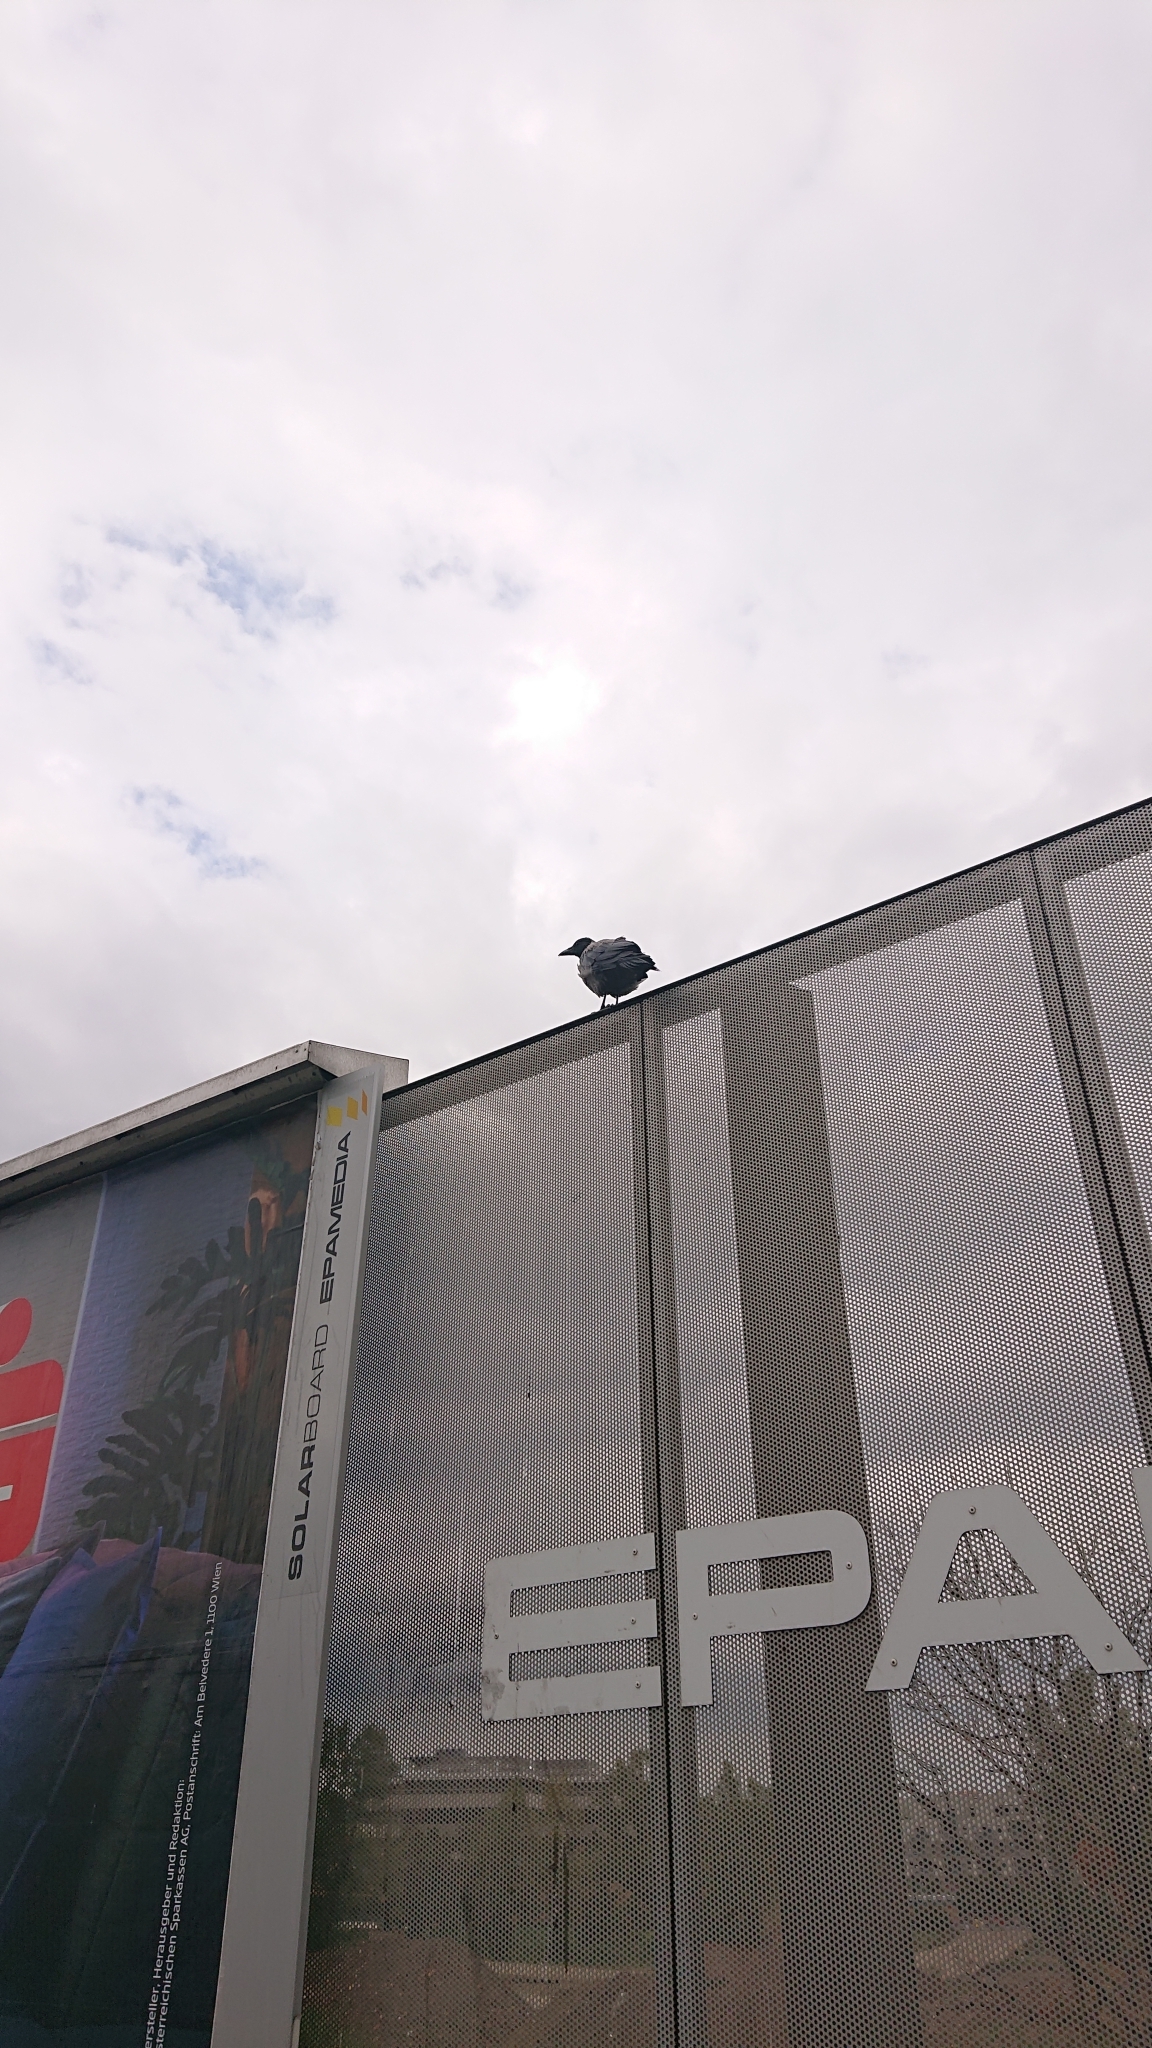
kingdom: Animalia
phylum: Chordata
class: Aves
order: Passeriformes
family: Corvidae
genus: Corvus
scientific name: Corvus cornix
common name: Hooded crow
